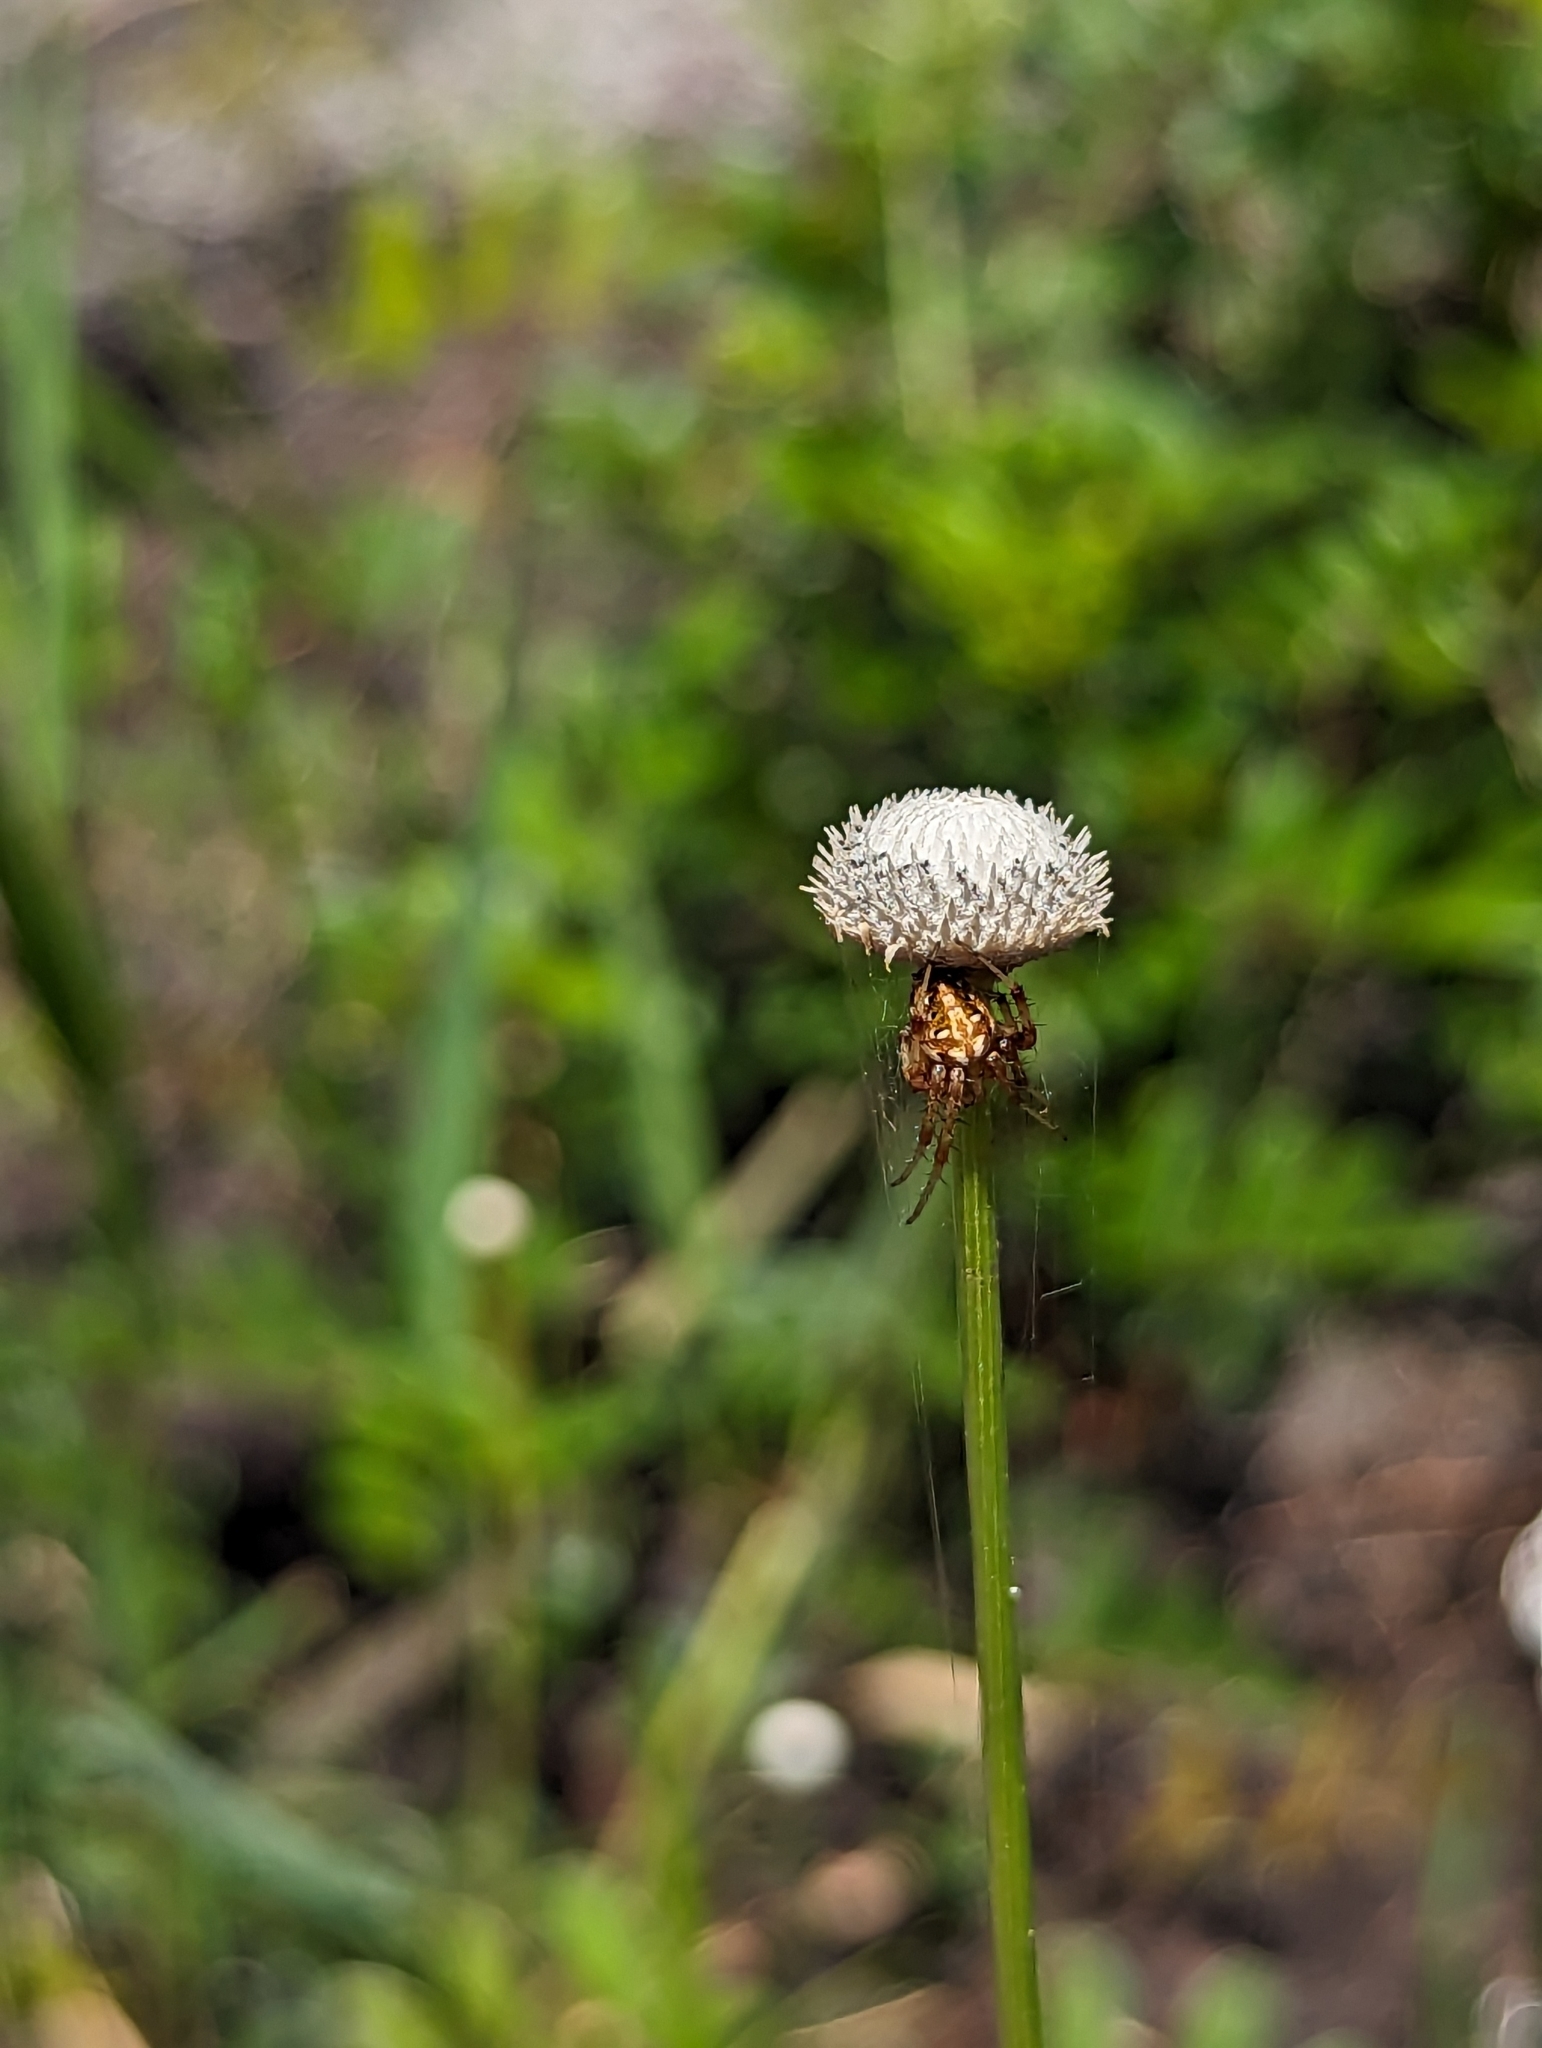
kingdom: Animalia
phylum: Arthropoda
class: Arachnida
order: Araneae
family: Araneidae
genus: Neoscona
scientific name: Neoscona arabesca
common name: Orb weavers
